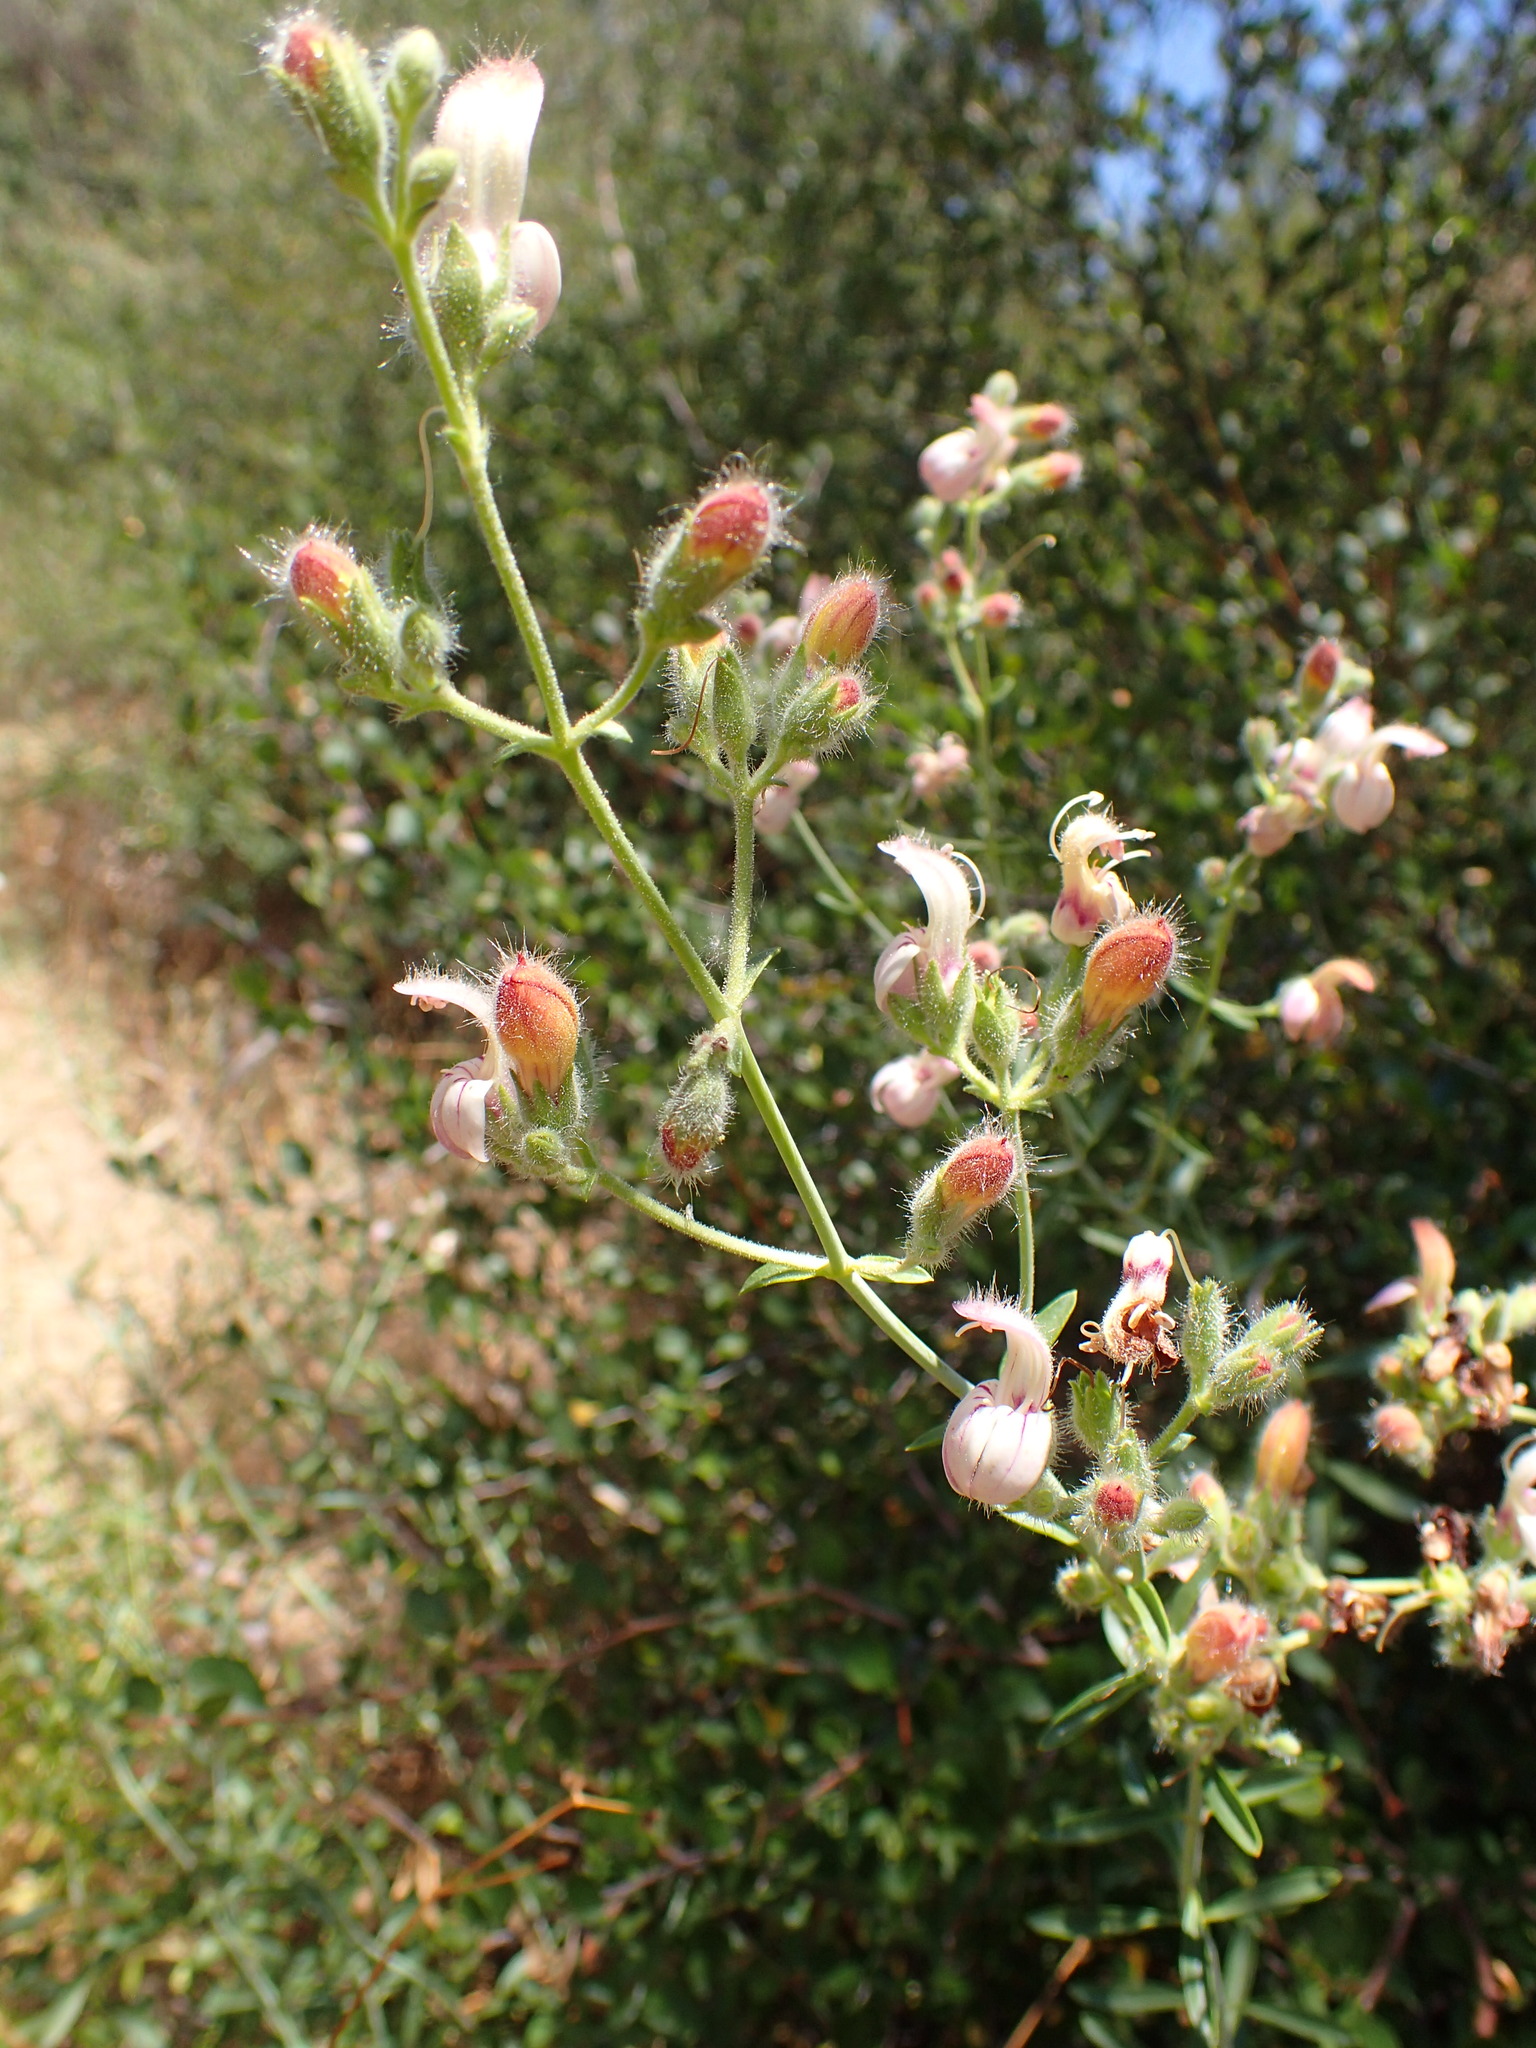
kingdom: Plantae
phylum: Tracheophyta
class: Magnoliopsida
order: Lamiales
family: Plantaginaceae
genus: Keckiella
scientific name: Keckiella breviflora
